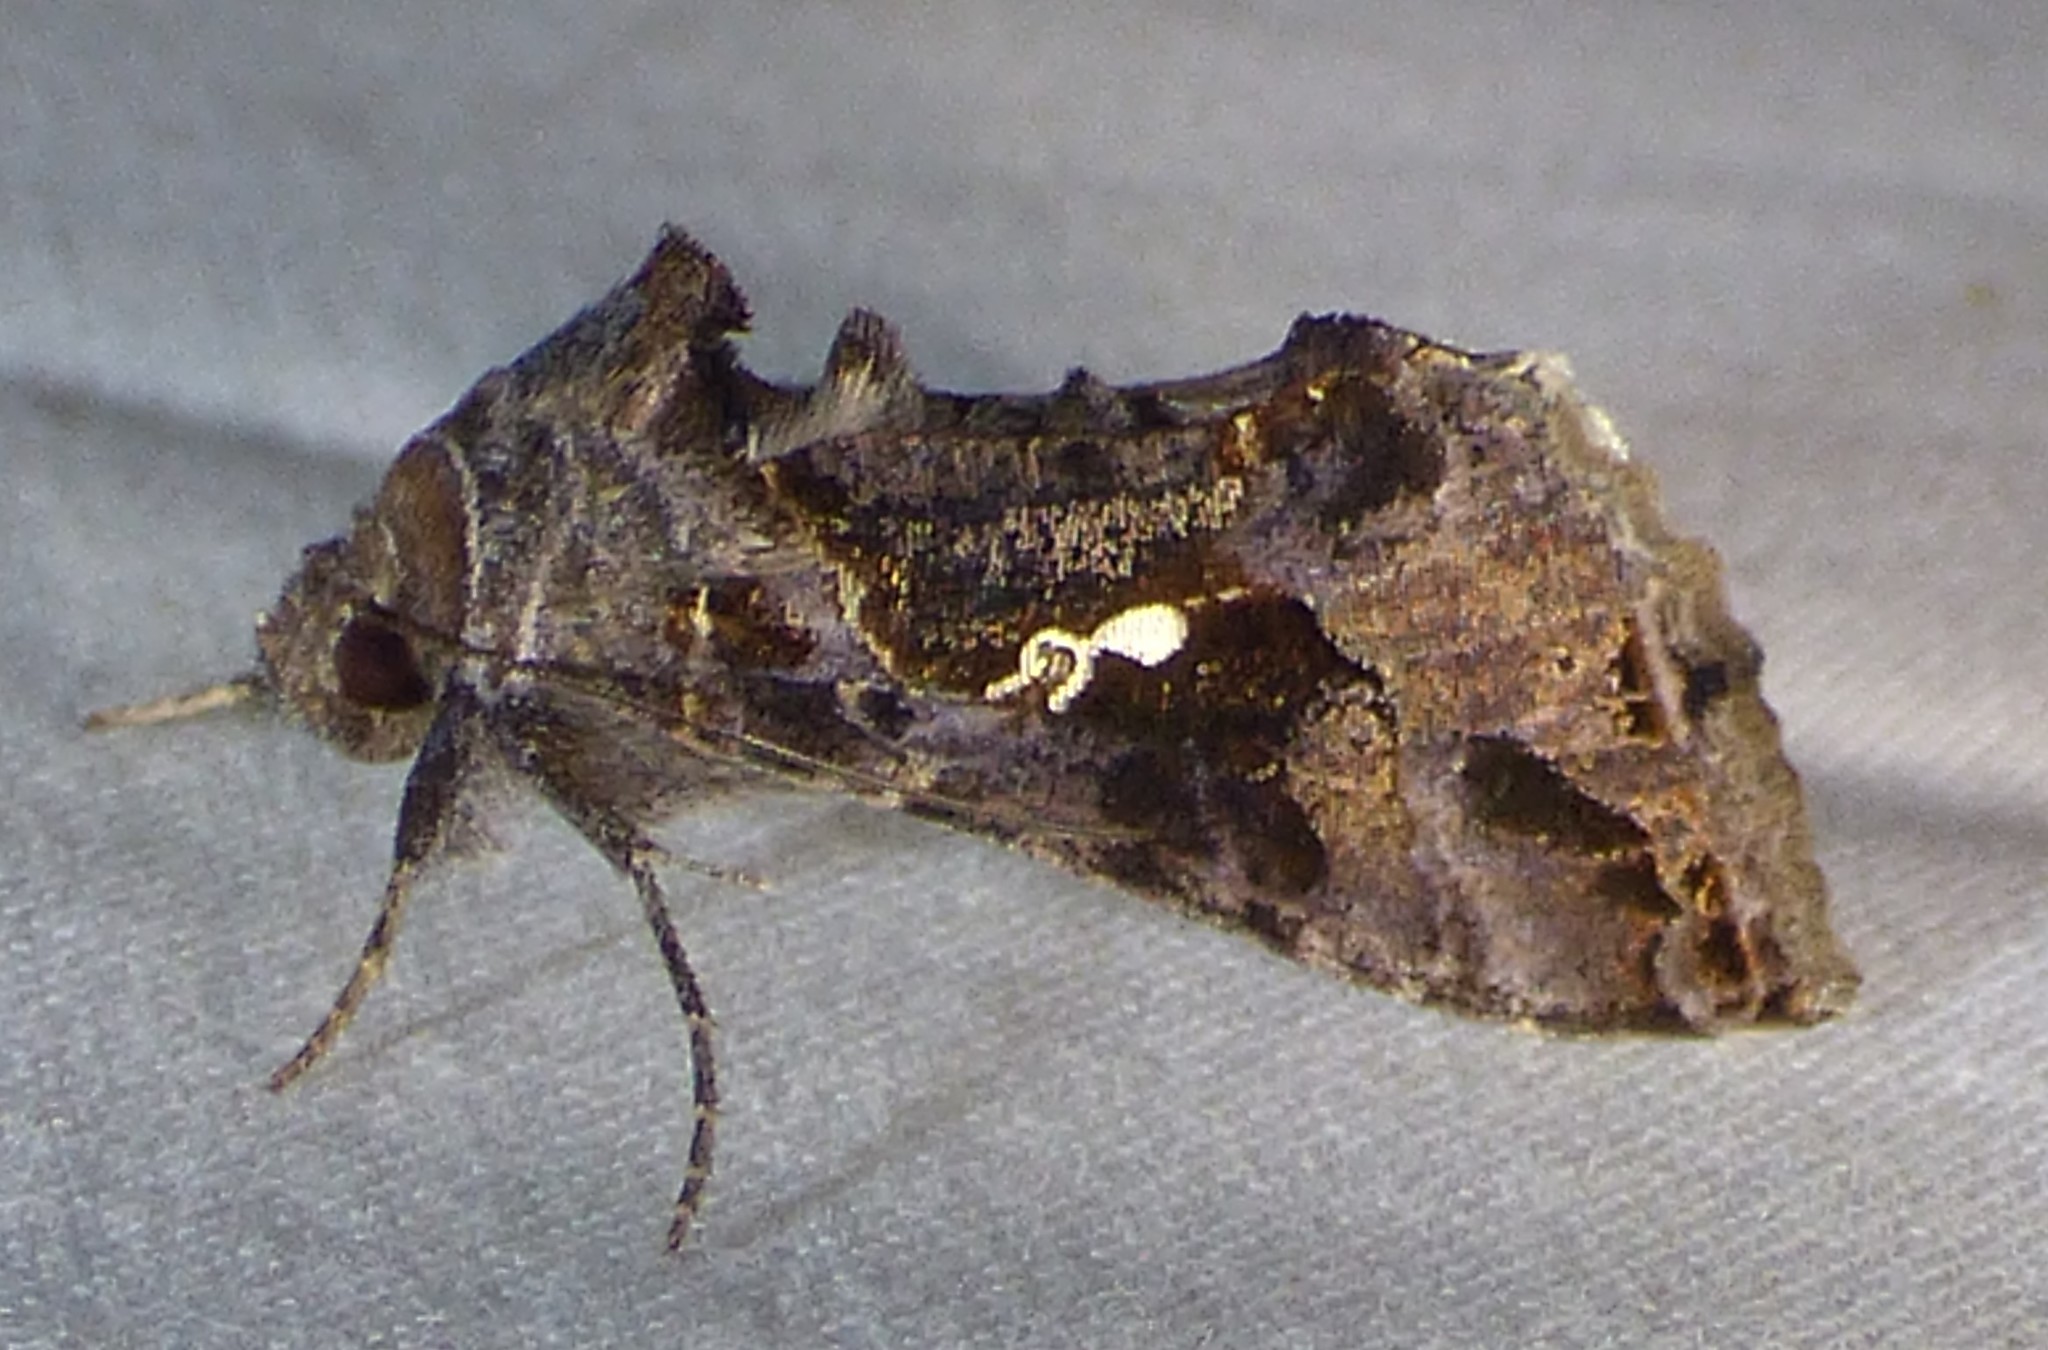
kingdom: Animalia
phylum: Arthropoda
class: Insecta
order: Lepidoptera
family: Noctuidae
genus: Chrysodeixis
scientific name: Chrysodeixis includens
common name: Cutworm moth
